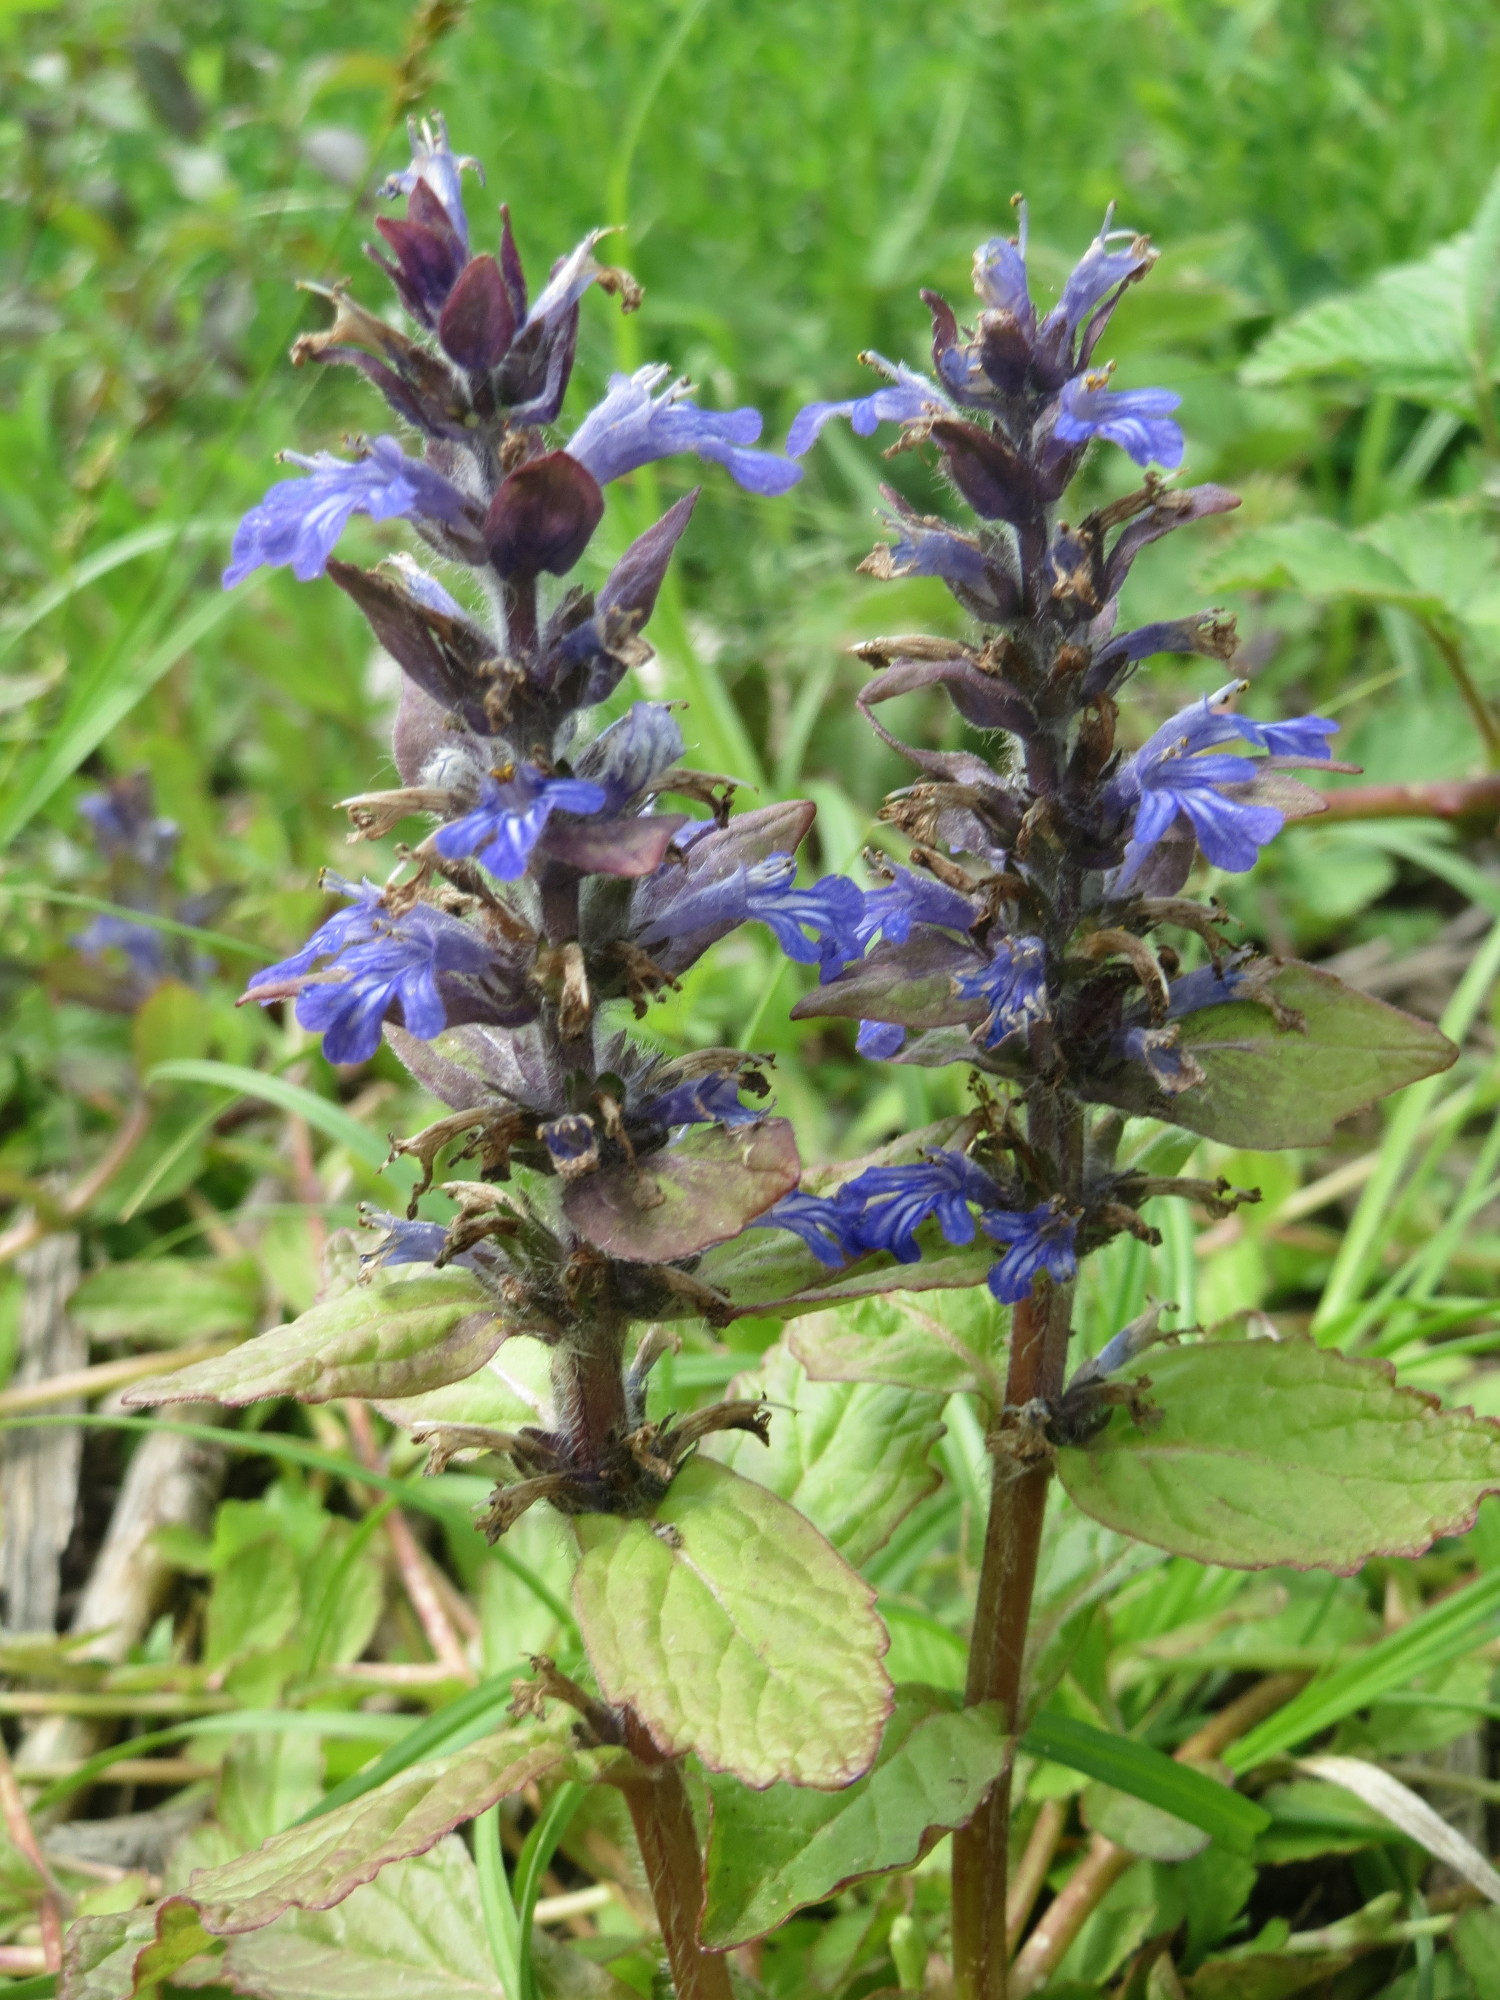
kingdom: Plantae
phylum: Tracheophyta
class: Magnoliopsida
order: Lamiales
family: Lamiaceae
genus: Ajuga
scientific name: Ajuga reptans
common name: Bugle
